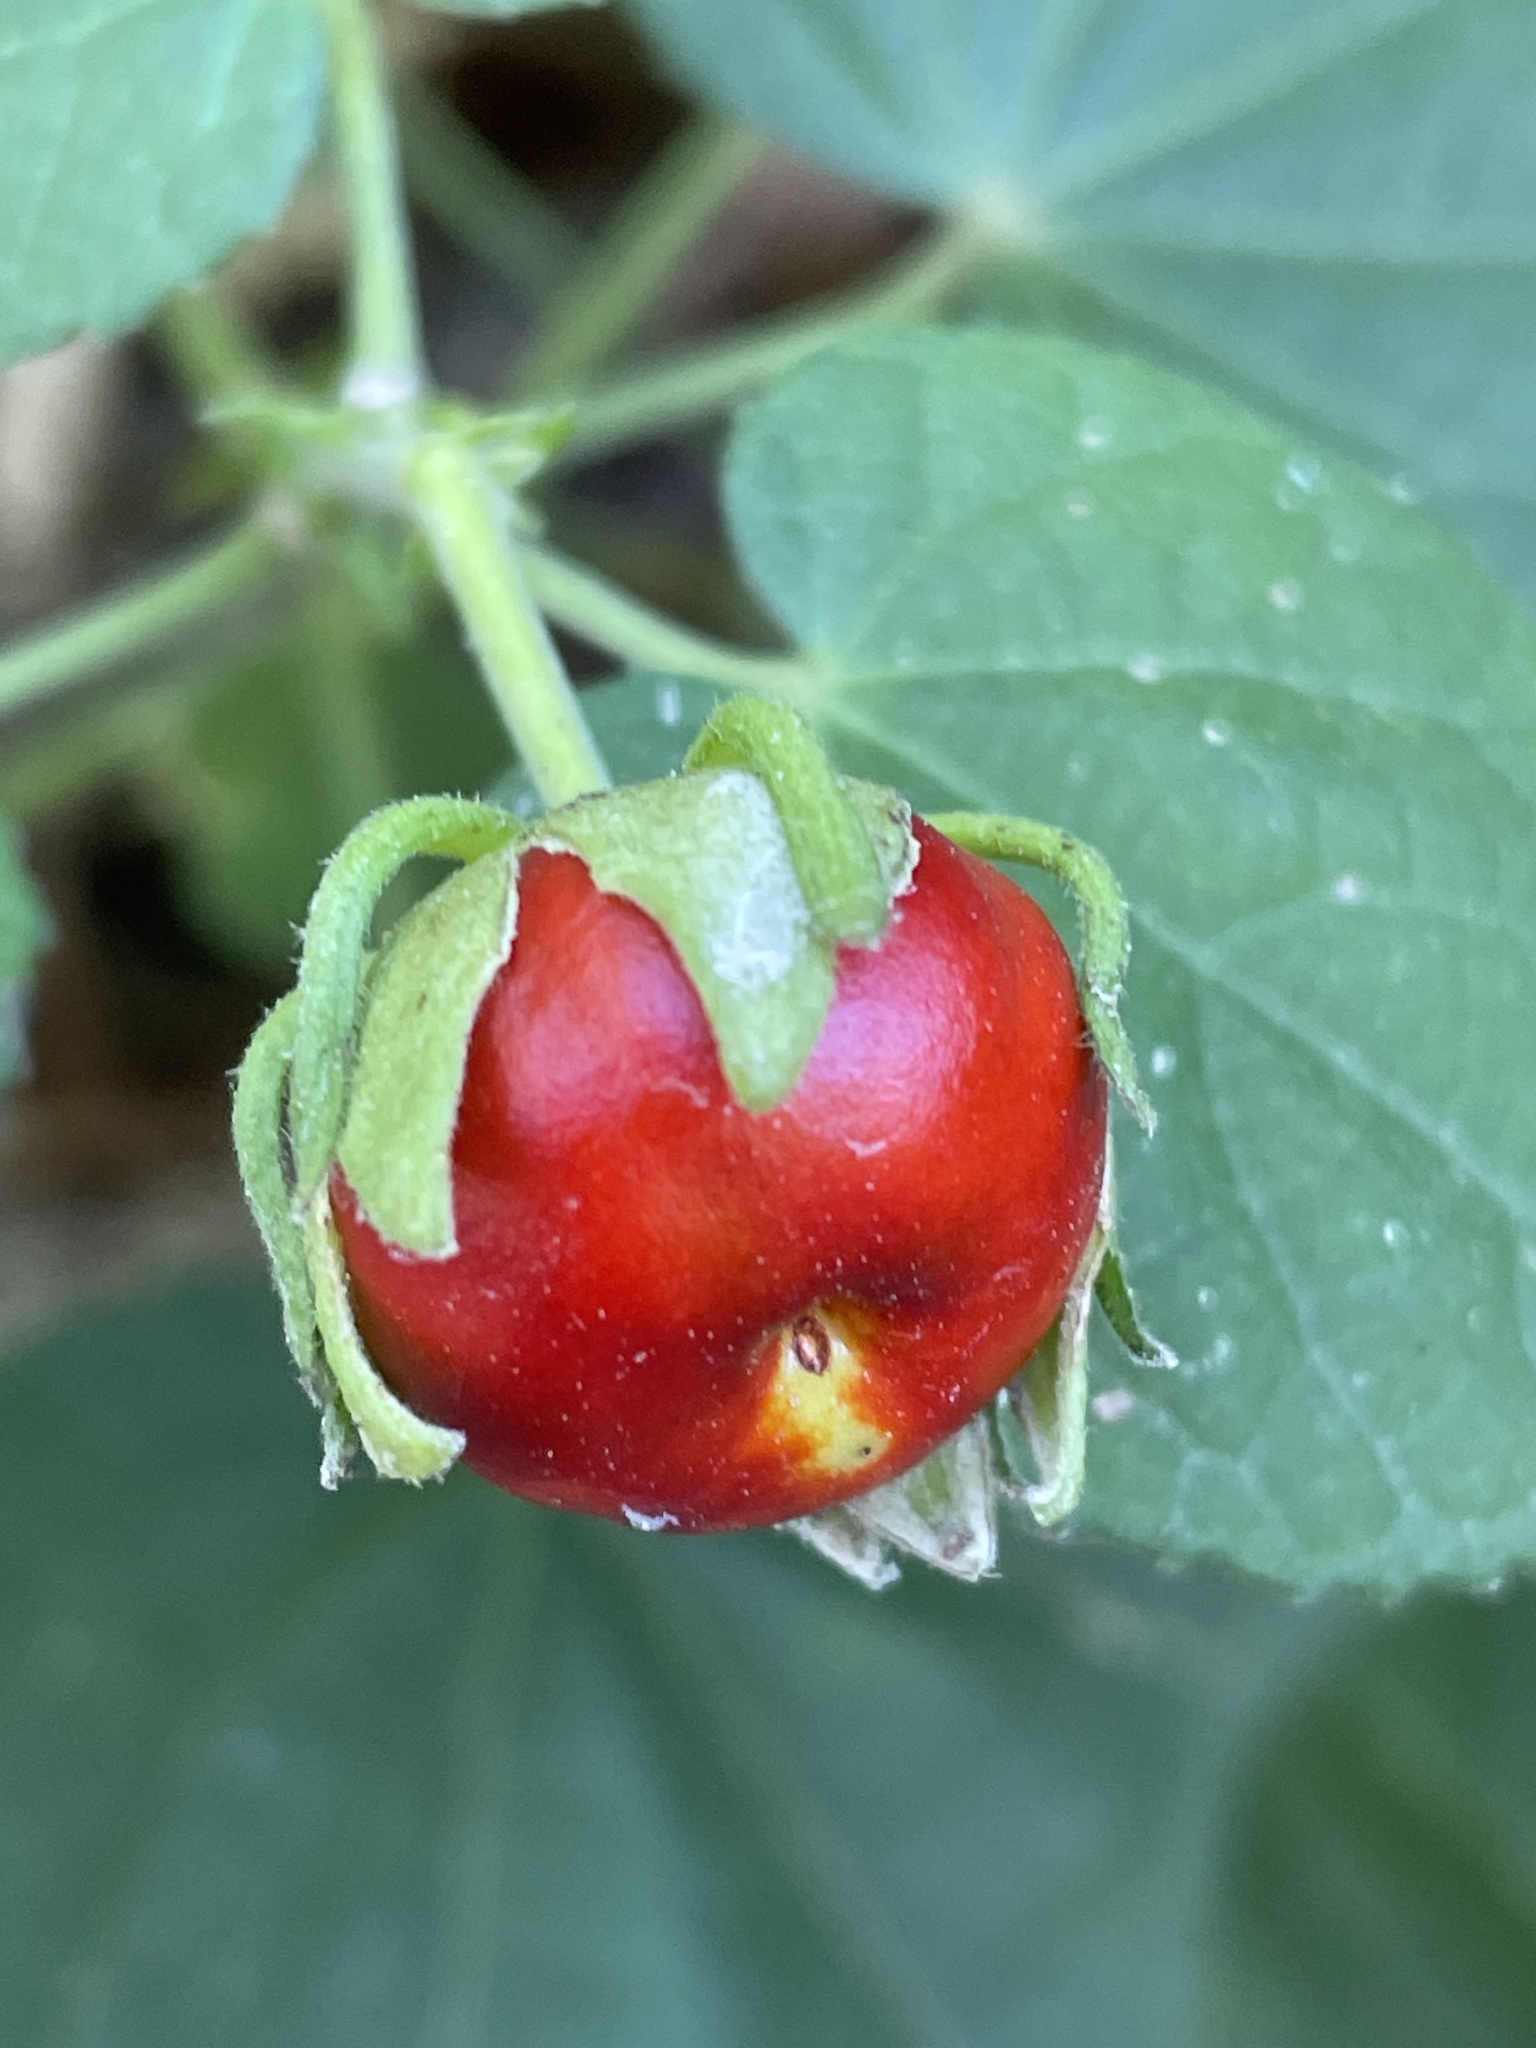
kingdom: Plantae
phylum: Tracheophyta
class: Magnoliopsida
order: Malvales
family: Malvaceae
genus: Malvaviscus
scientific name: Malvaviscus arboreus
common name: Wax mallow
